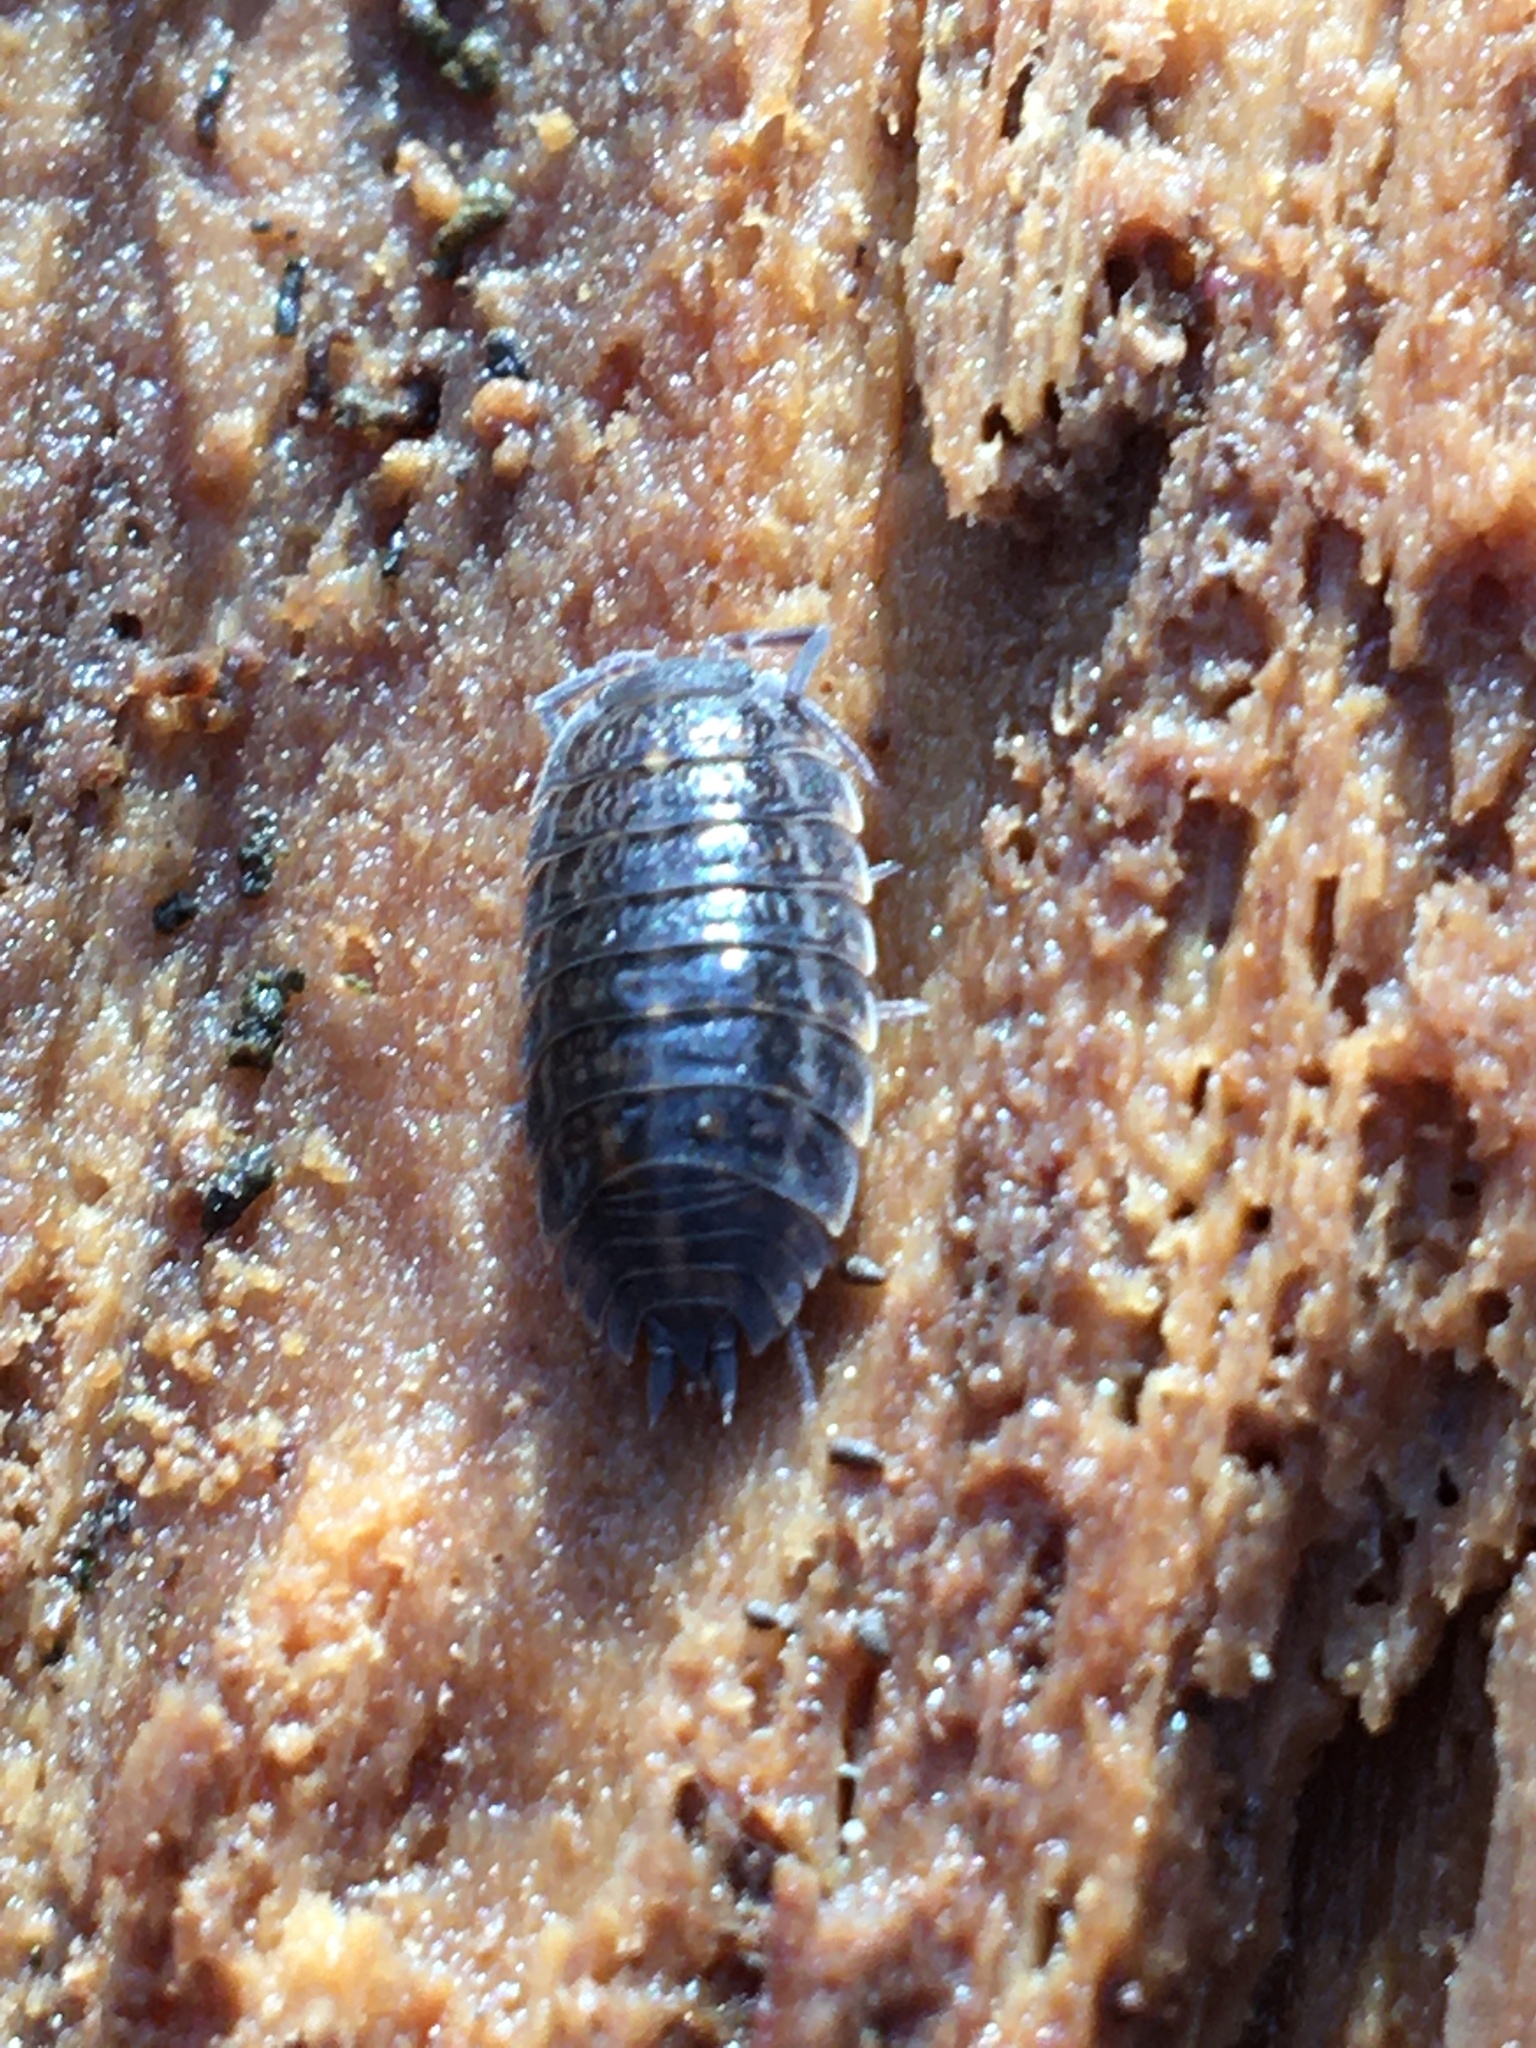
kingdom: Animalia
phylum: Arthropoda
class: Malacostraca
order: Isopoda
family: Trachelipodidae
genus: Trachelipus
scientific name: Trachelipus rathkii
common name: Isopod
